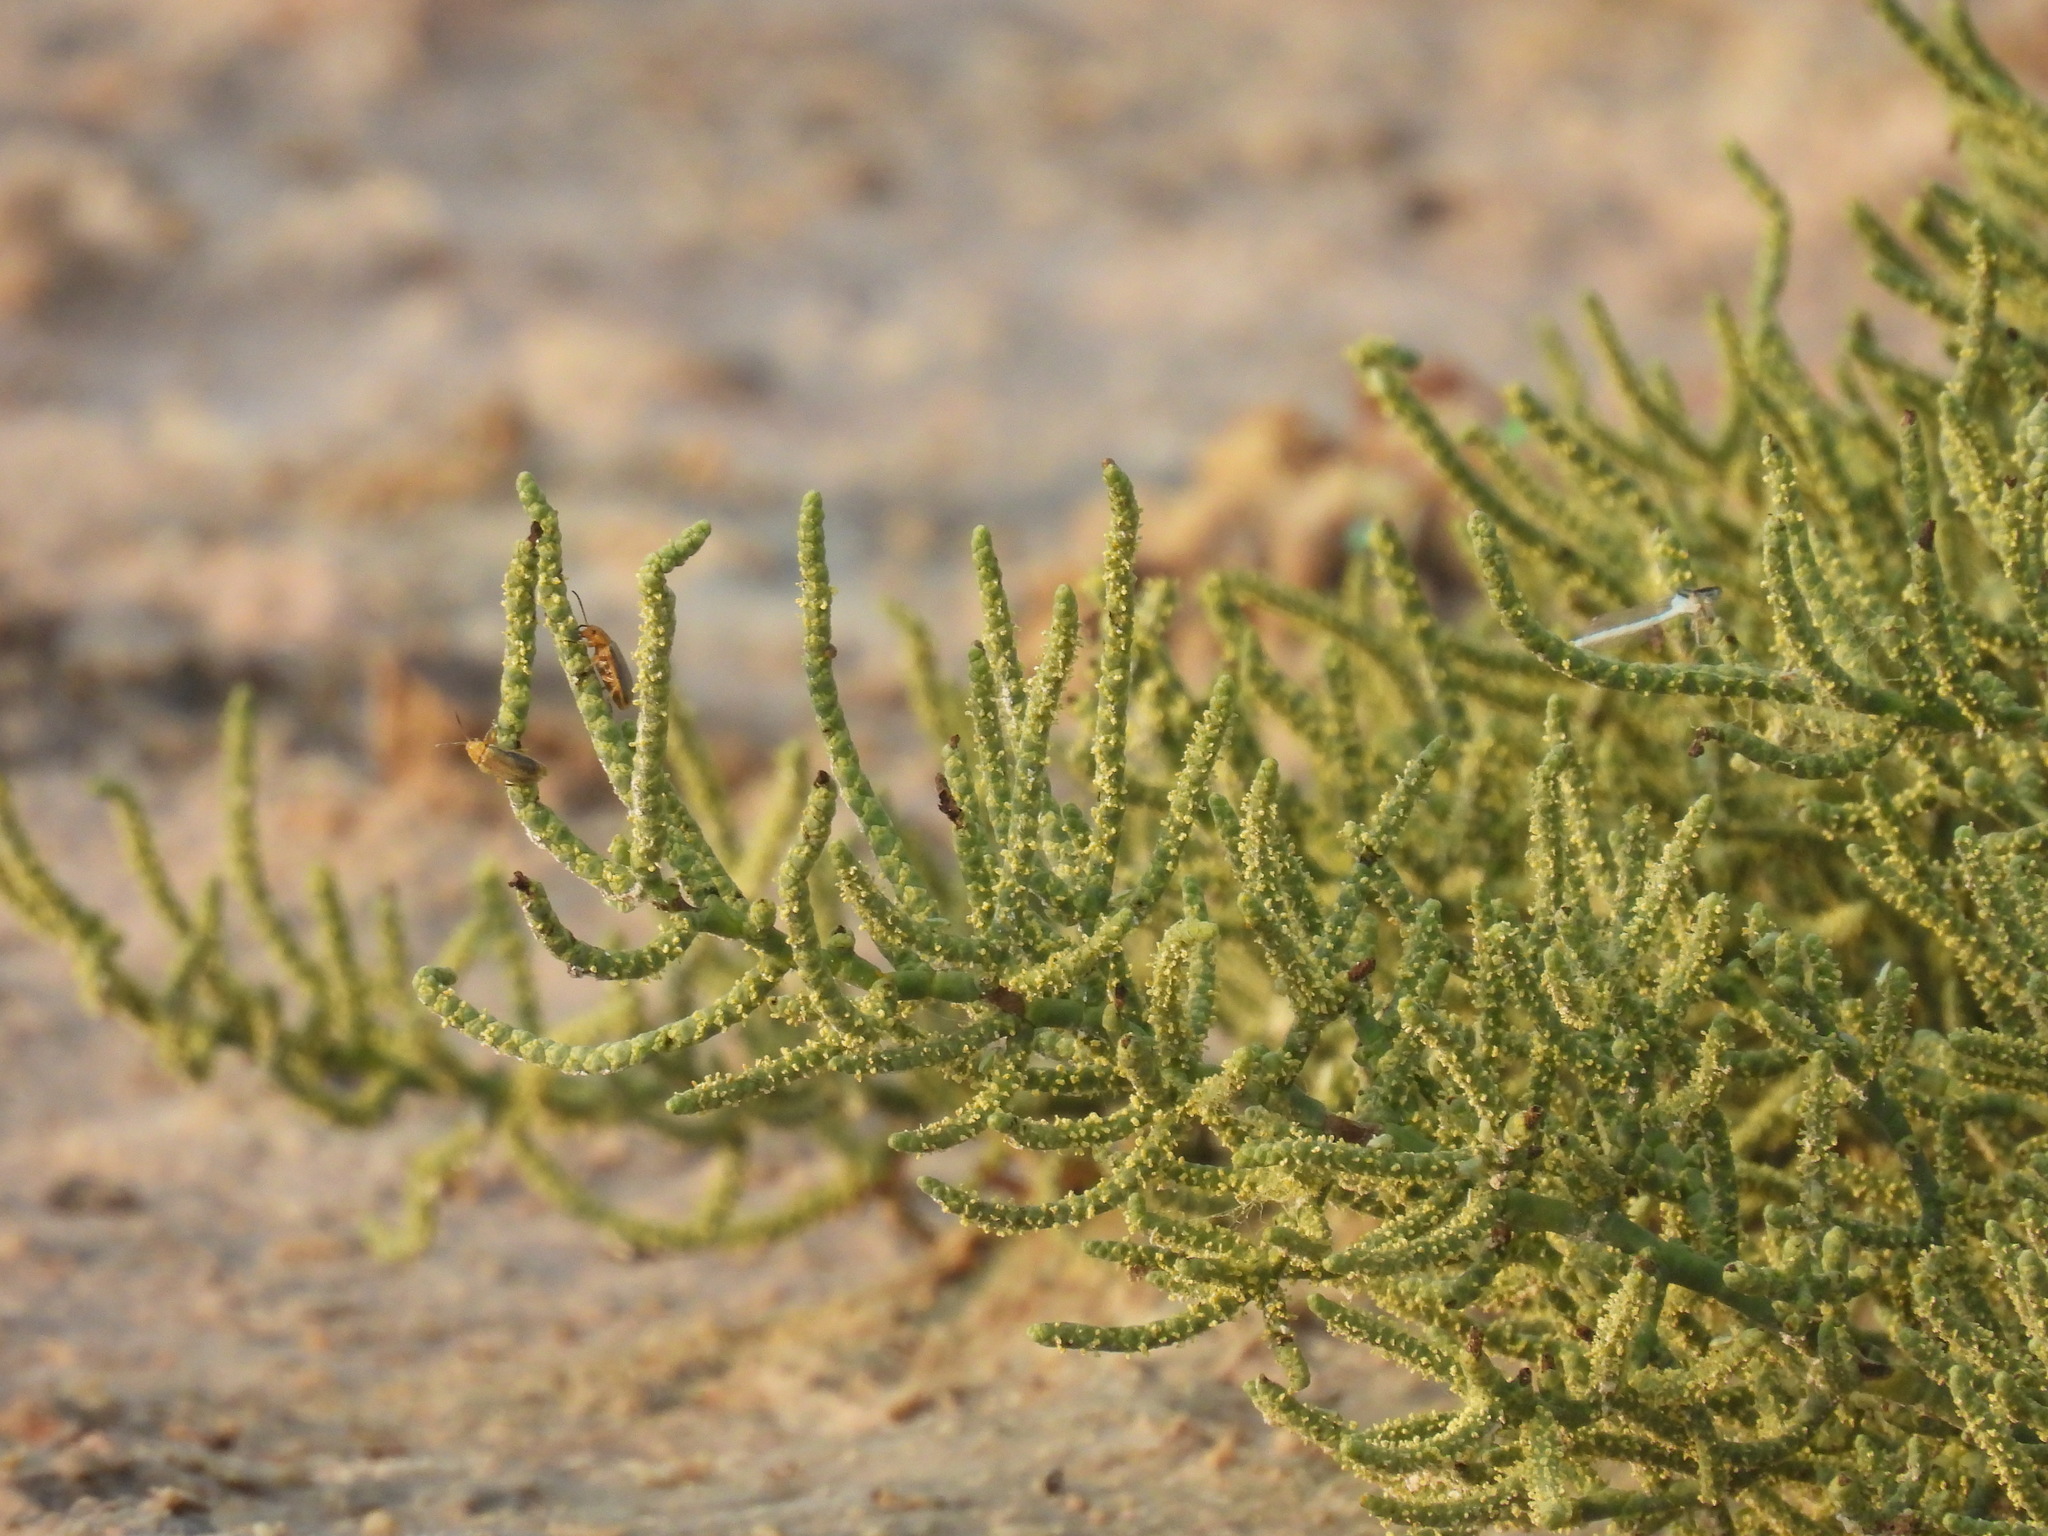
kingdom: Plantae
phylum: Tracheophyta
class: Magnoliopsida
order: Caryophyllales
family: Amaranthaceae
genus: Allenrolfea
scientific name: Allenrolfea occidentalis
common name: Iodine-bush
